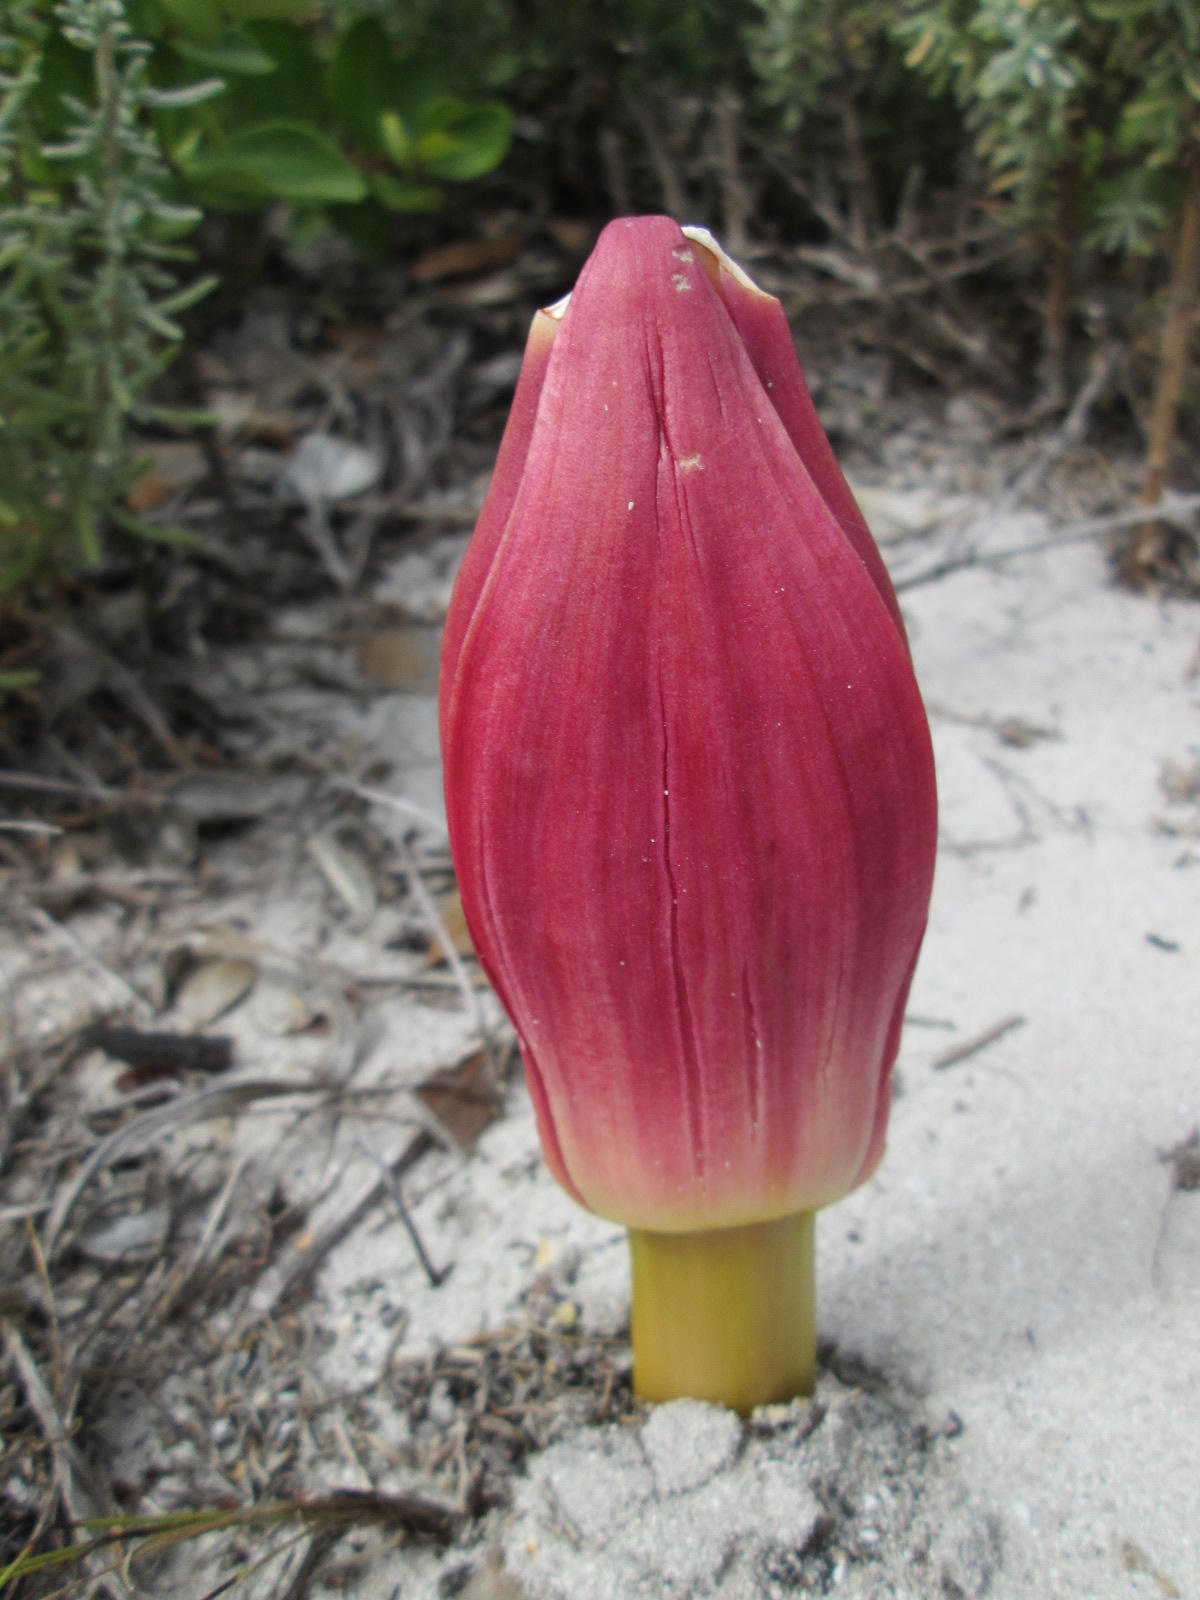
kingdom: Plantae
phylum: Tracheophyta
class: Liliopsida
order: Asparagales
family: Amaryllidaceae
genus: Brunsvigia
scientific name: Brunsvigia orientalis
